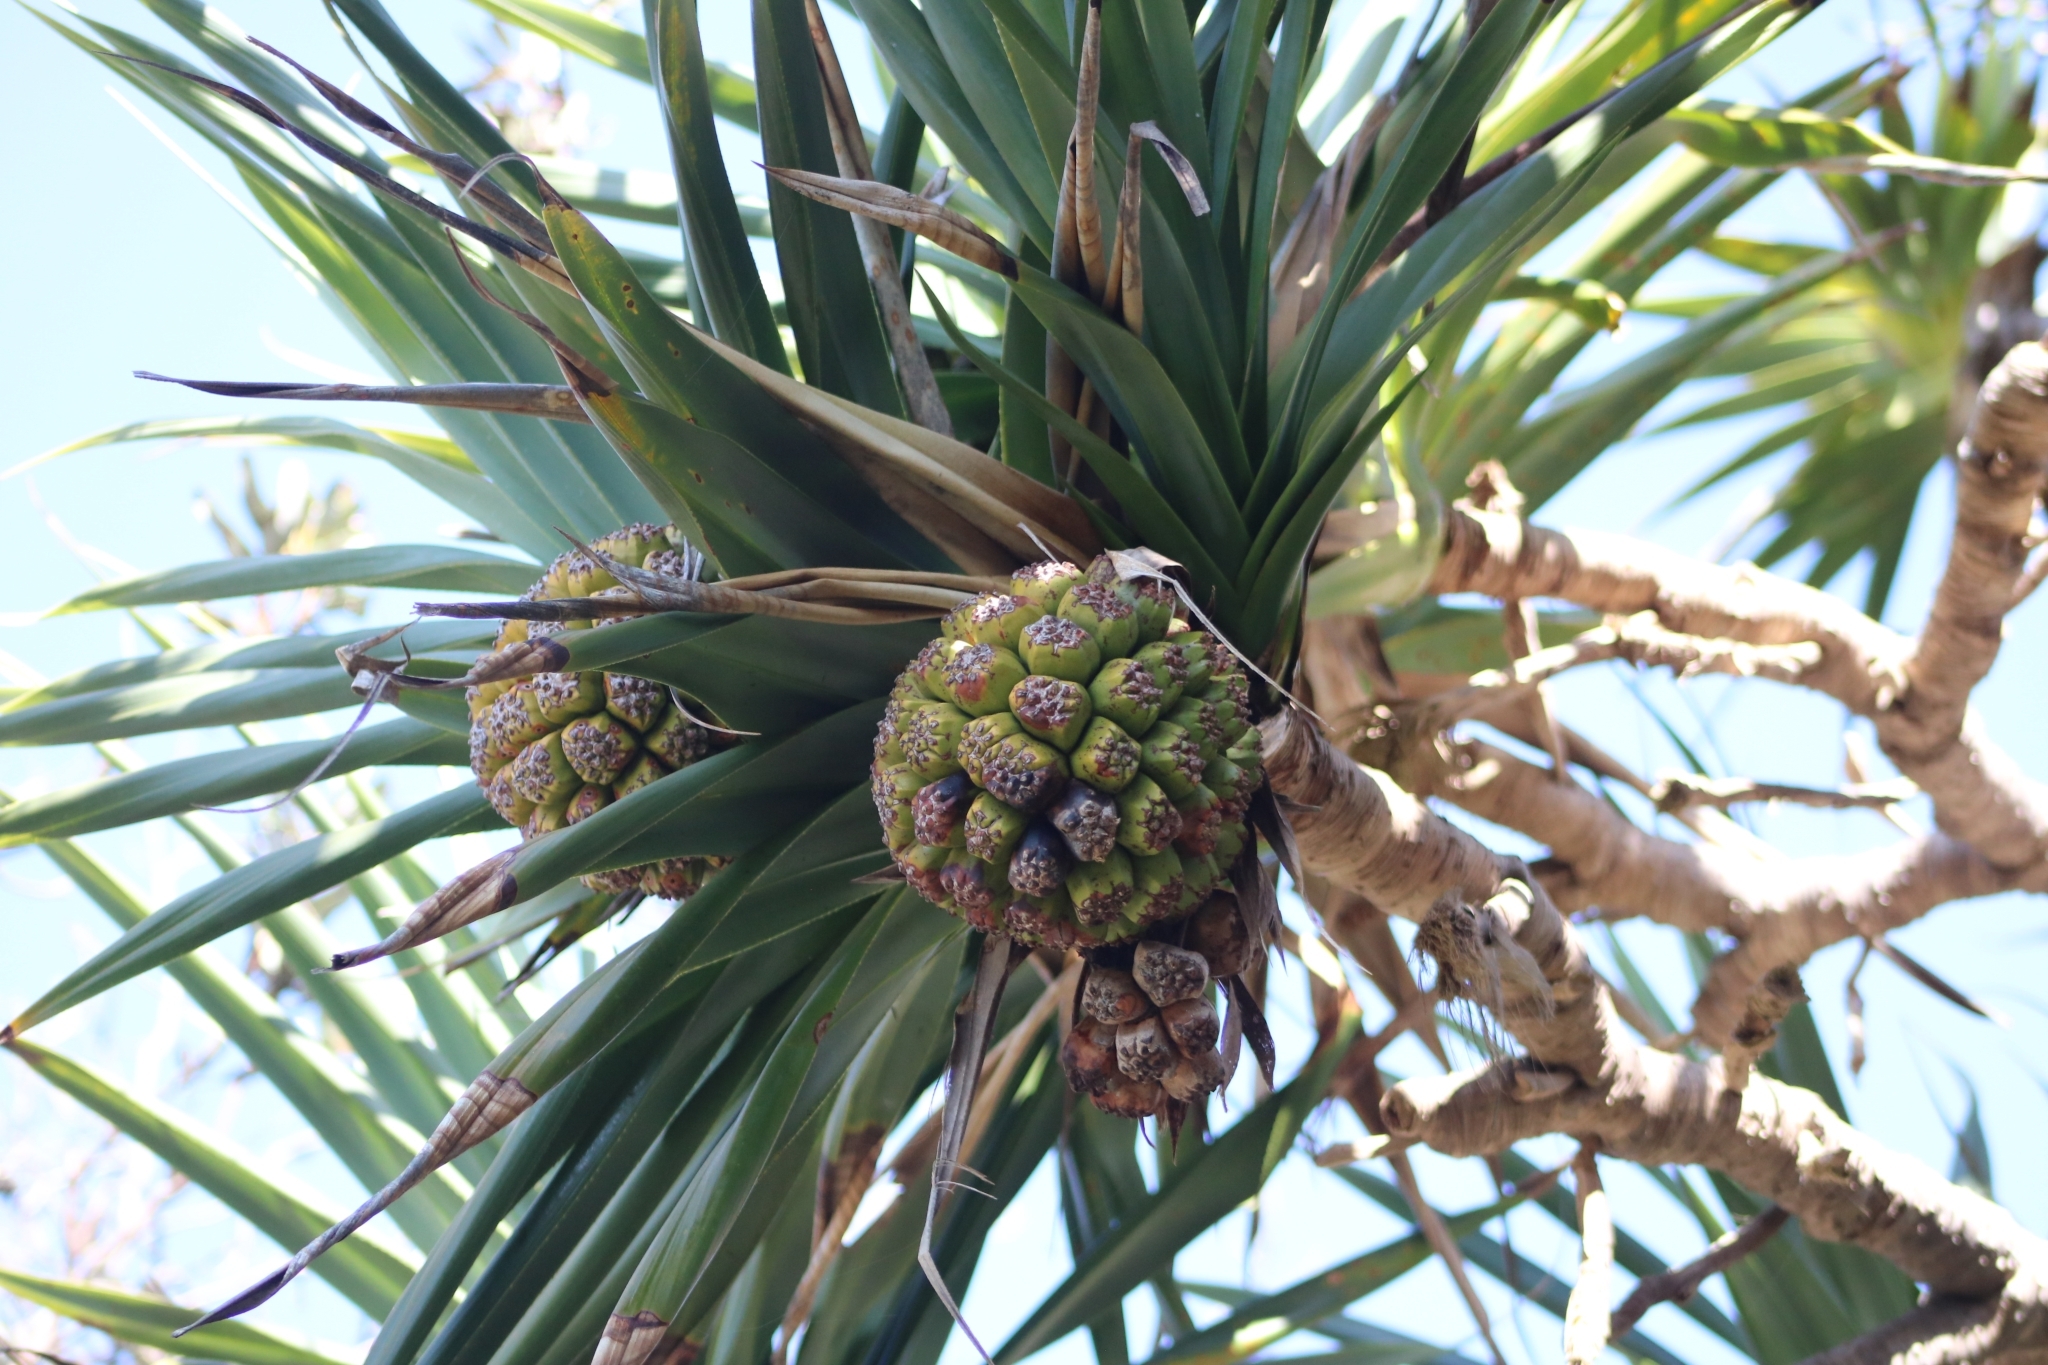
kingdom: Plantae
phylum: Tracheophyta
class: Liliopsida
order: Pandanales
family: Pandanaceae
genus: Pandanus
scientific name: Pandanus tectorius
